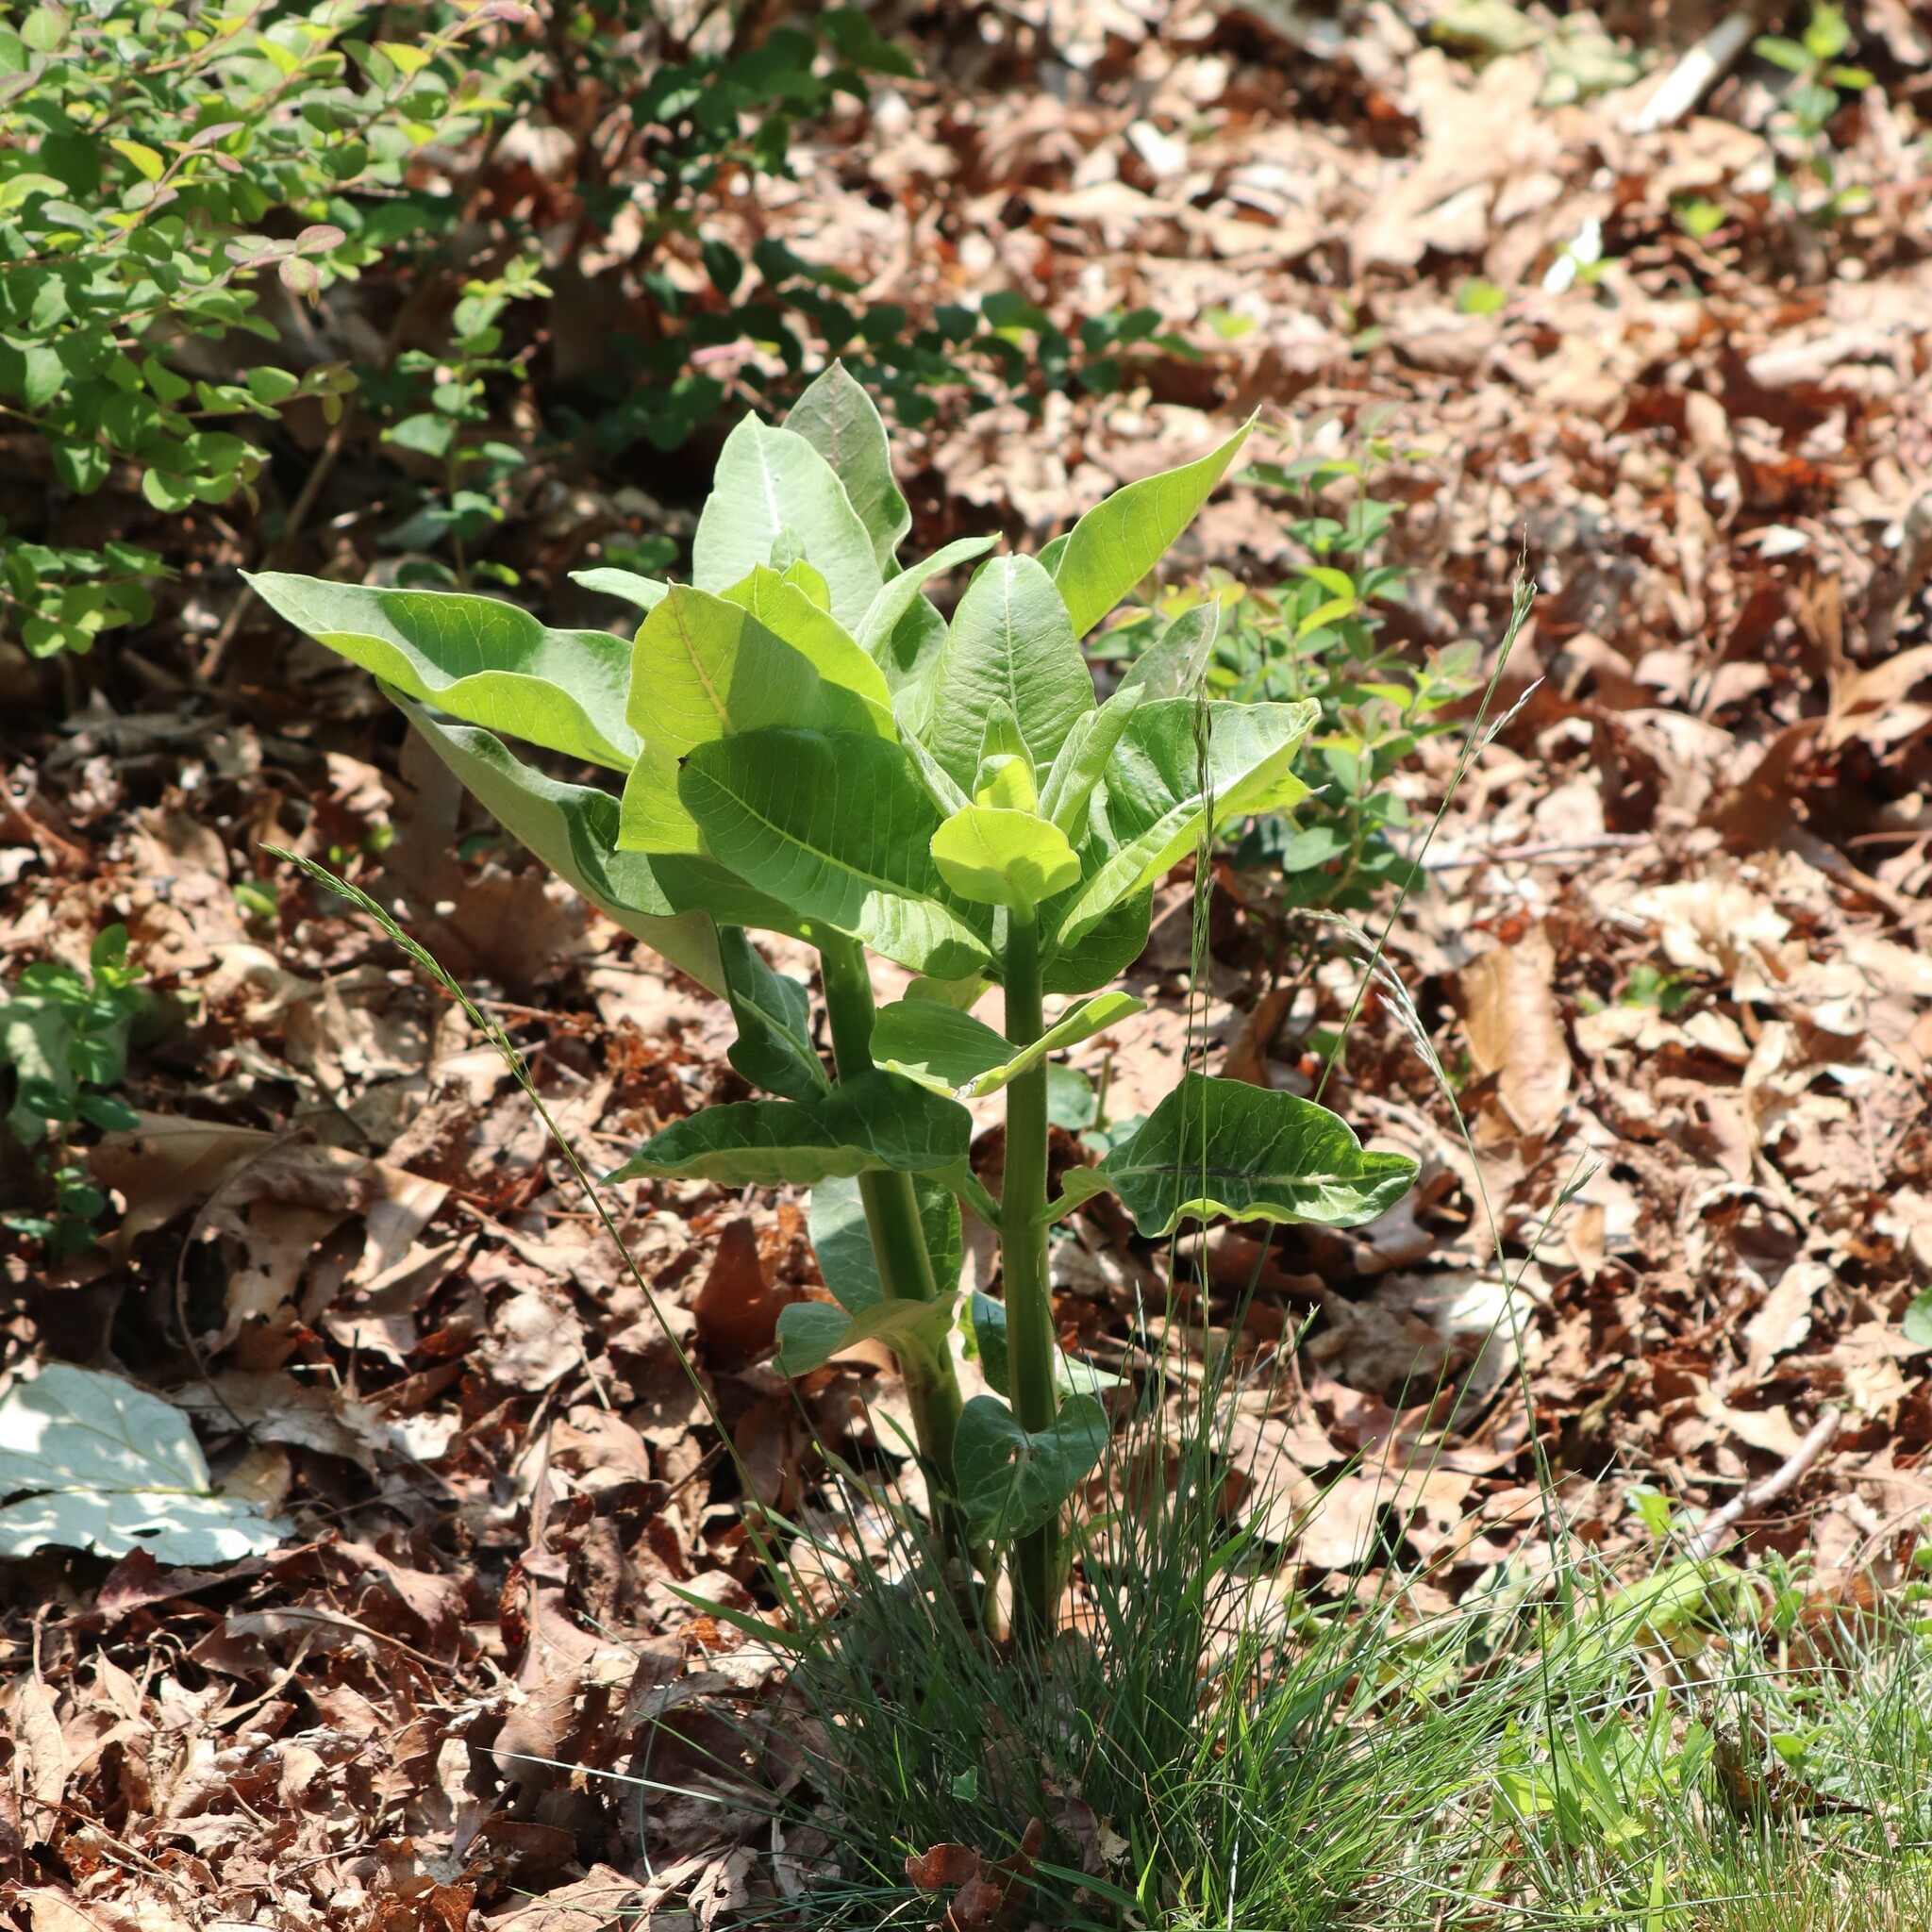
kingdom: Plantae
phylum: Tracheophyta
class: Magnoliopsida
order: Gentianales
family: Apocynaceae
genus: Asclepias
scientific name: Asclepias syriaca
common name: Common milkweed
